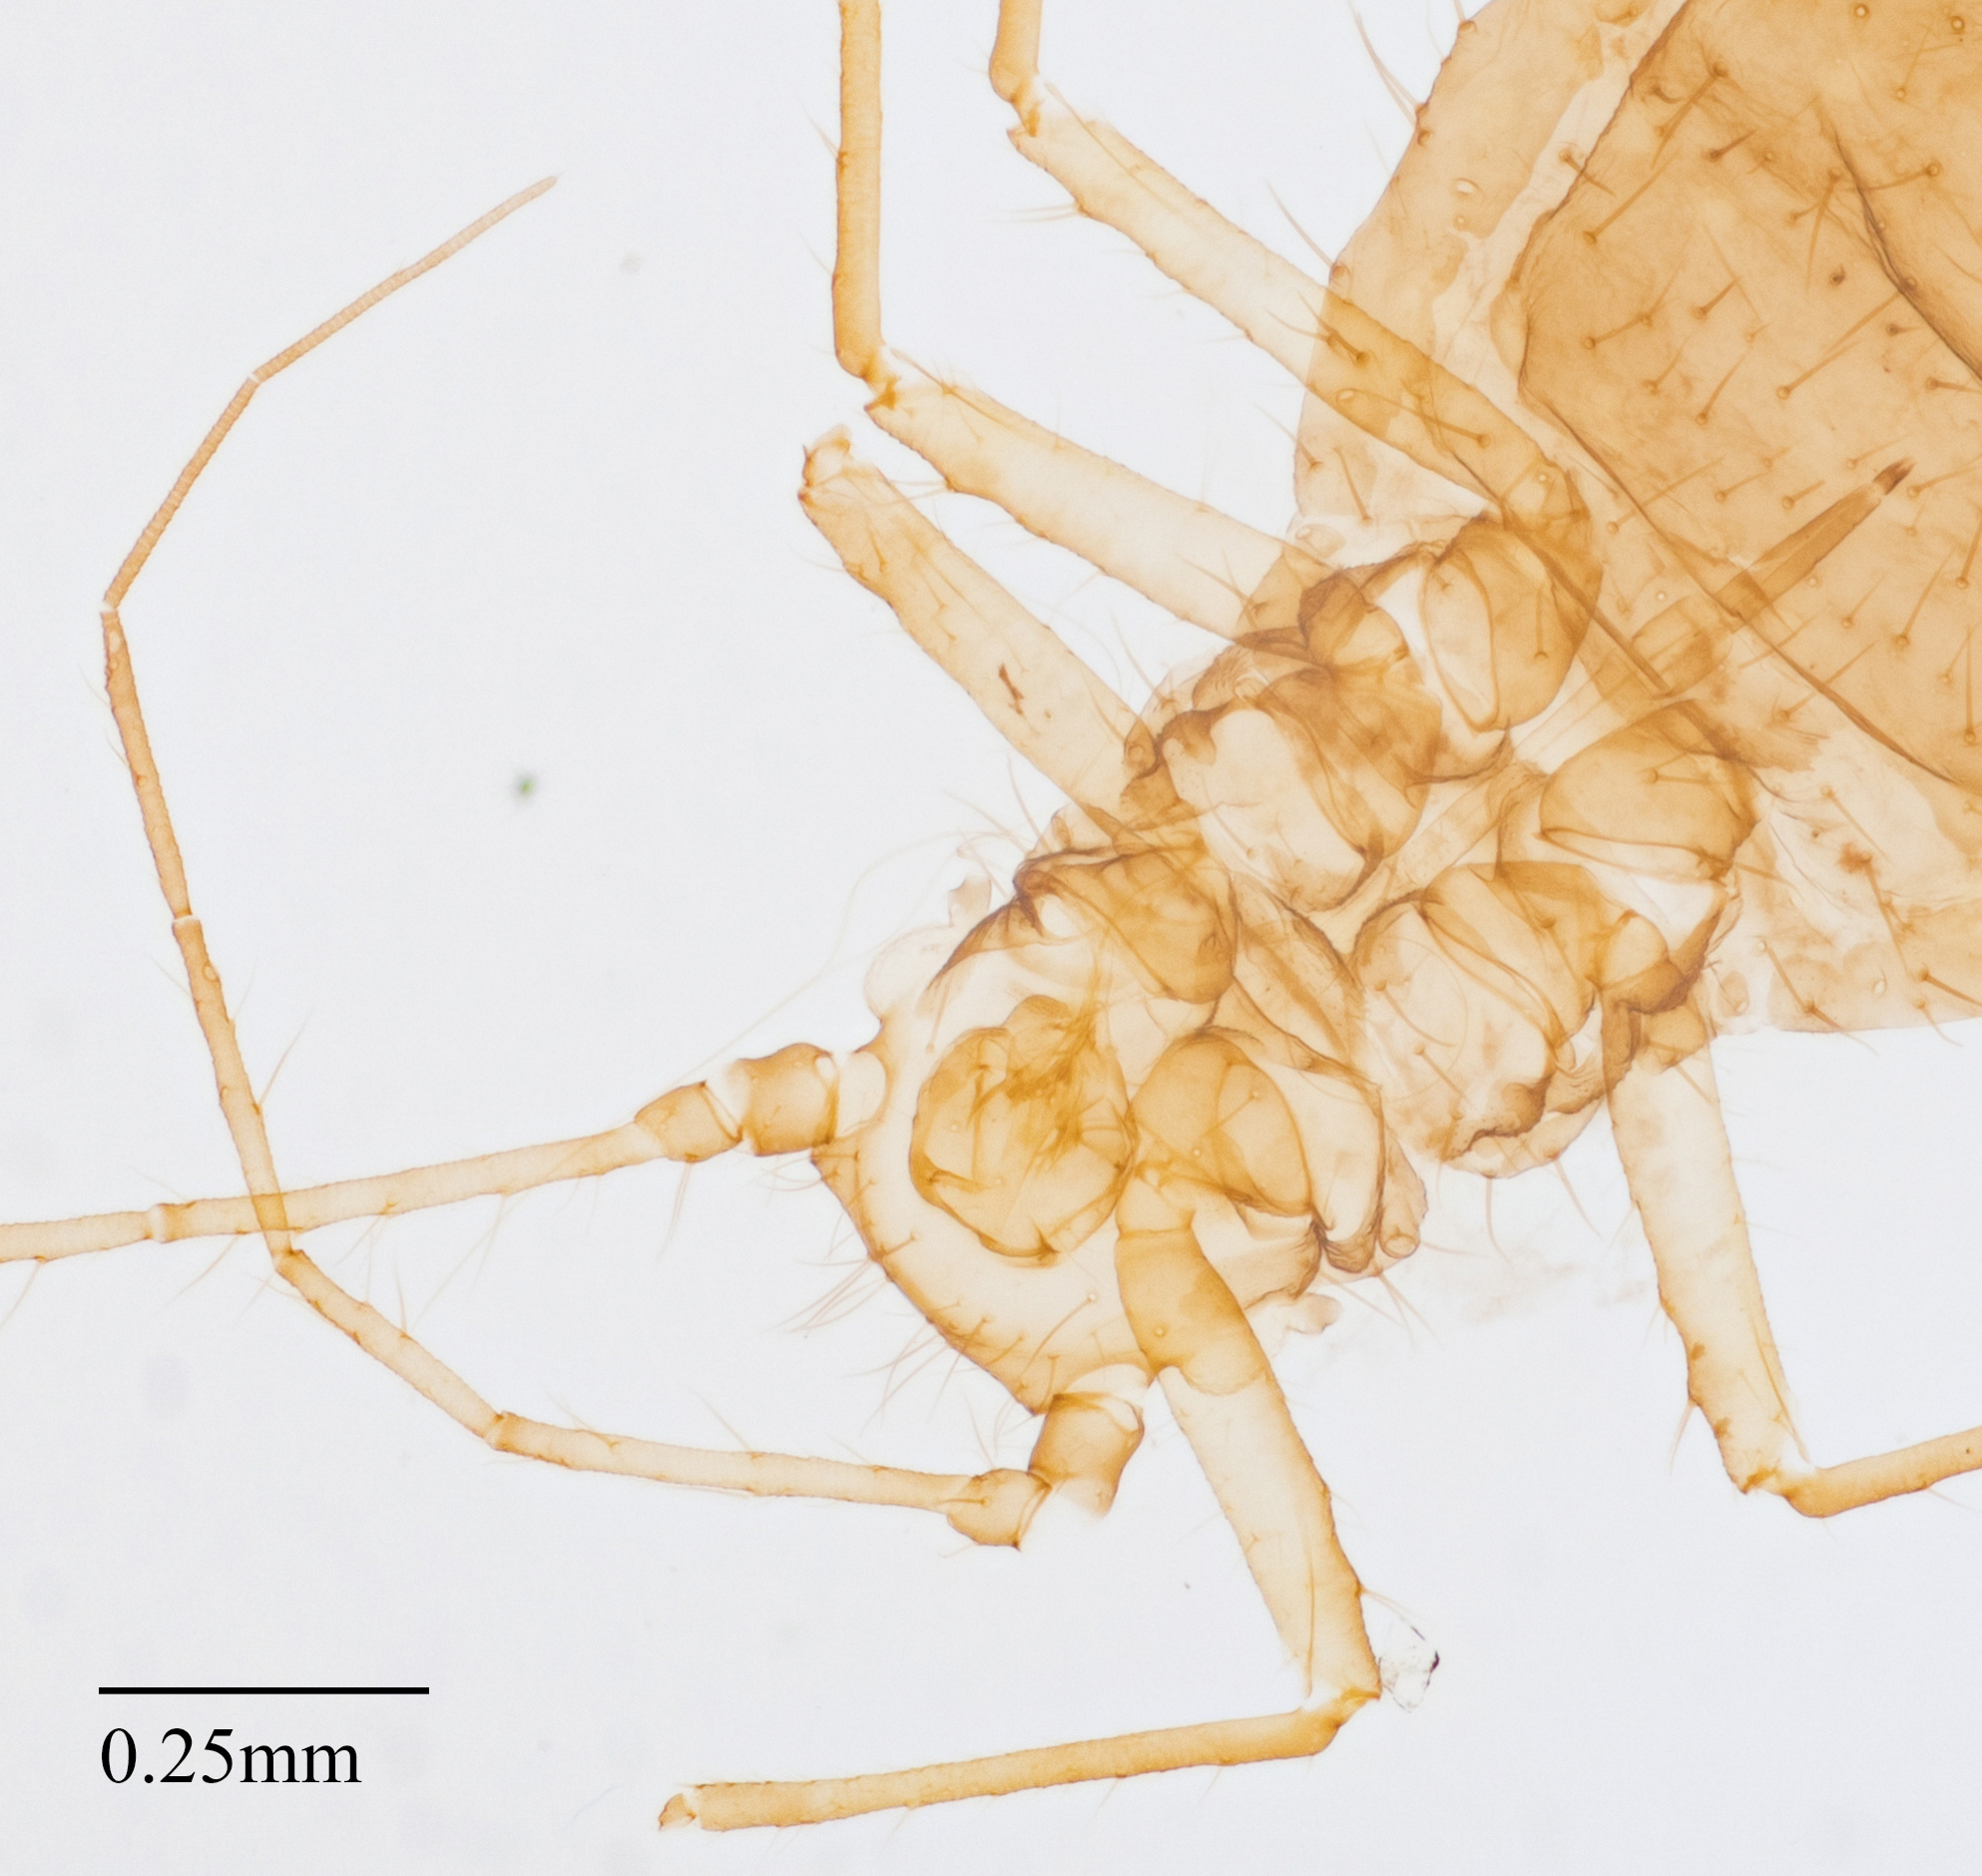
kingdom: Animalia
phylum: Arthropoda
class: Insecta
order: Hemiptera
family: Aphididae
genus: Greenidea
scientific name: Greenidea ficicola
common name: Aphid
